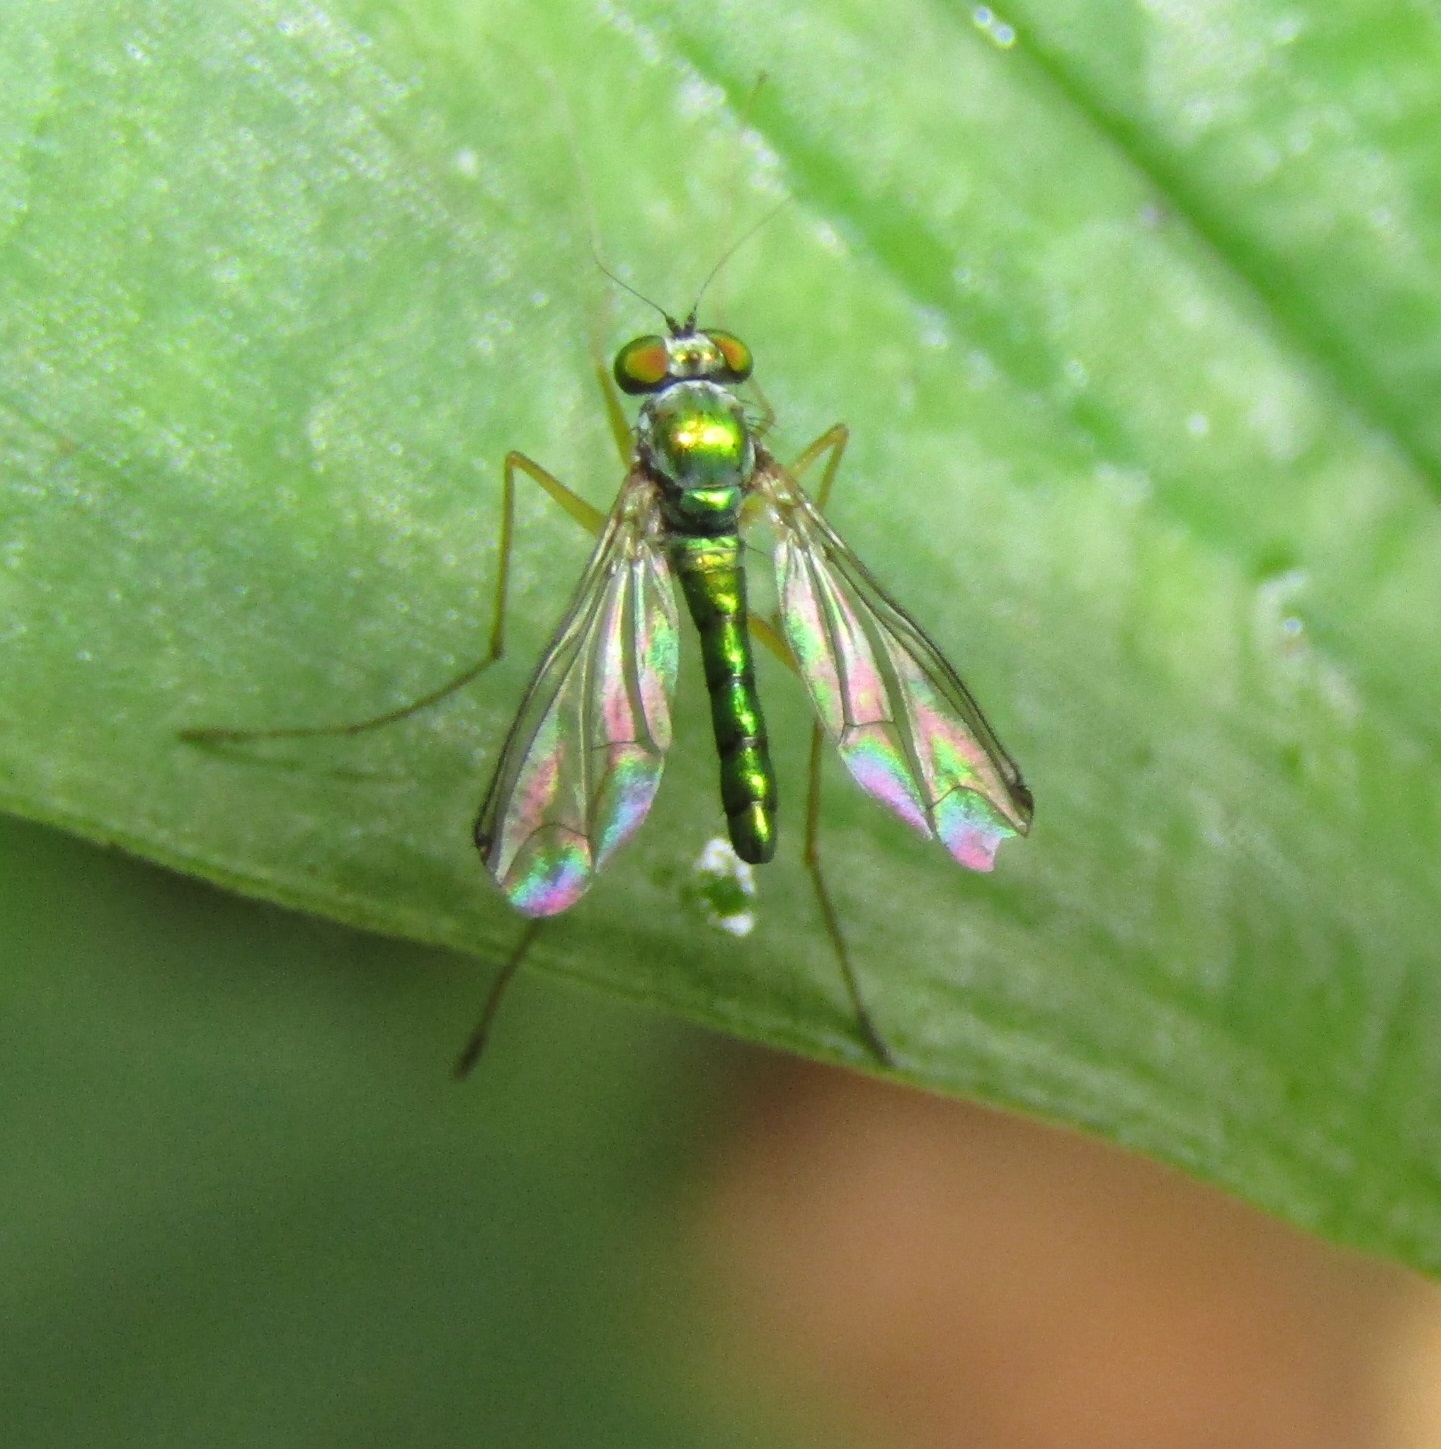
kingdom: Animalia
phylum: Arthropoda
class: Insecta
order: Diptera
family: Dolichopodidae
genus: Parentia
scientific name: Parentia anomalicosta
